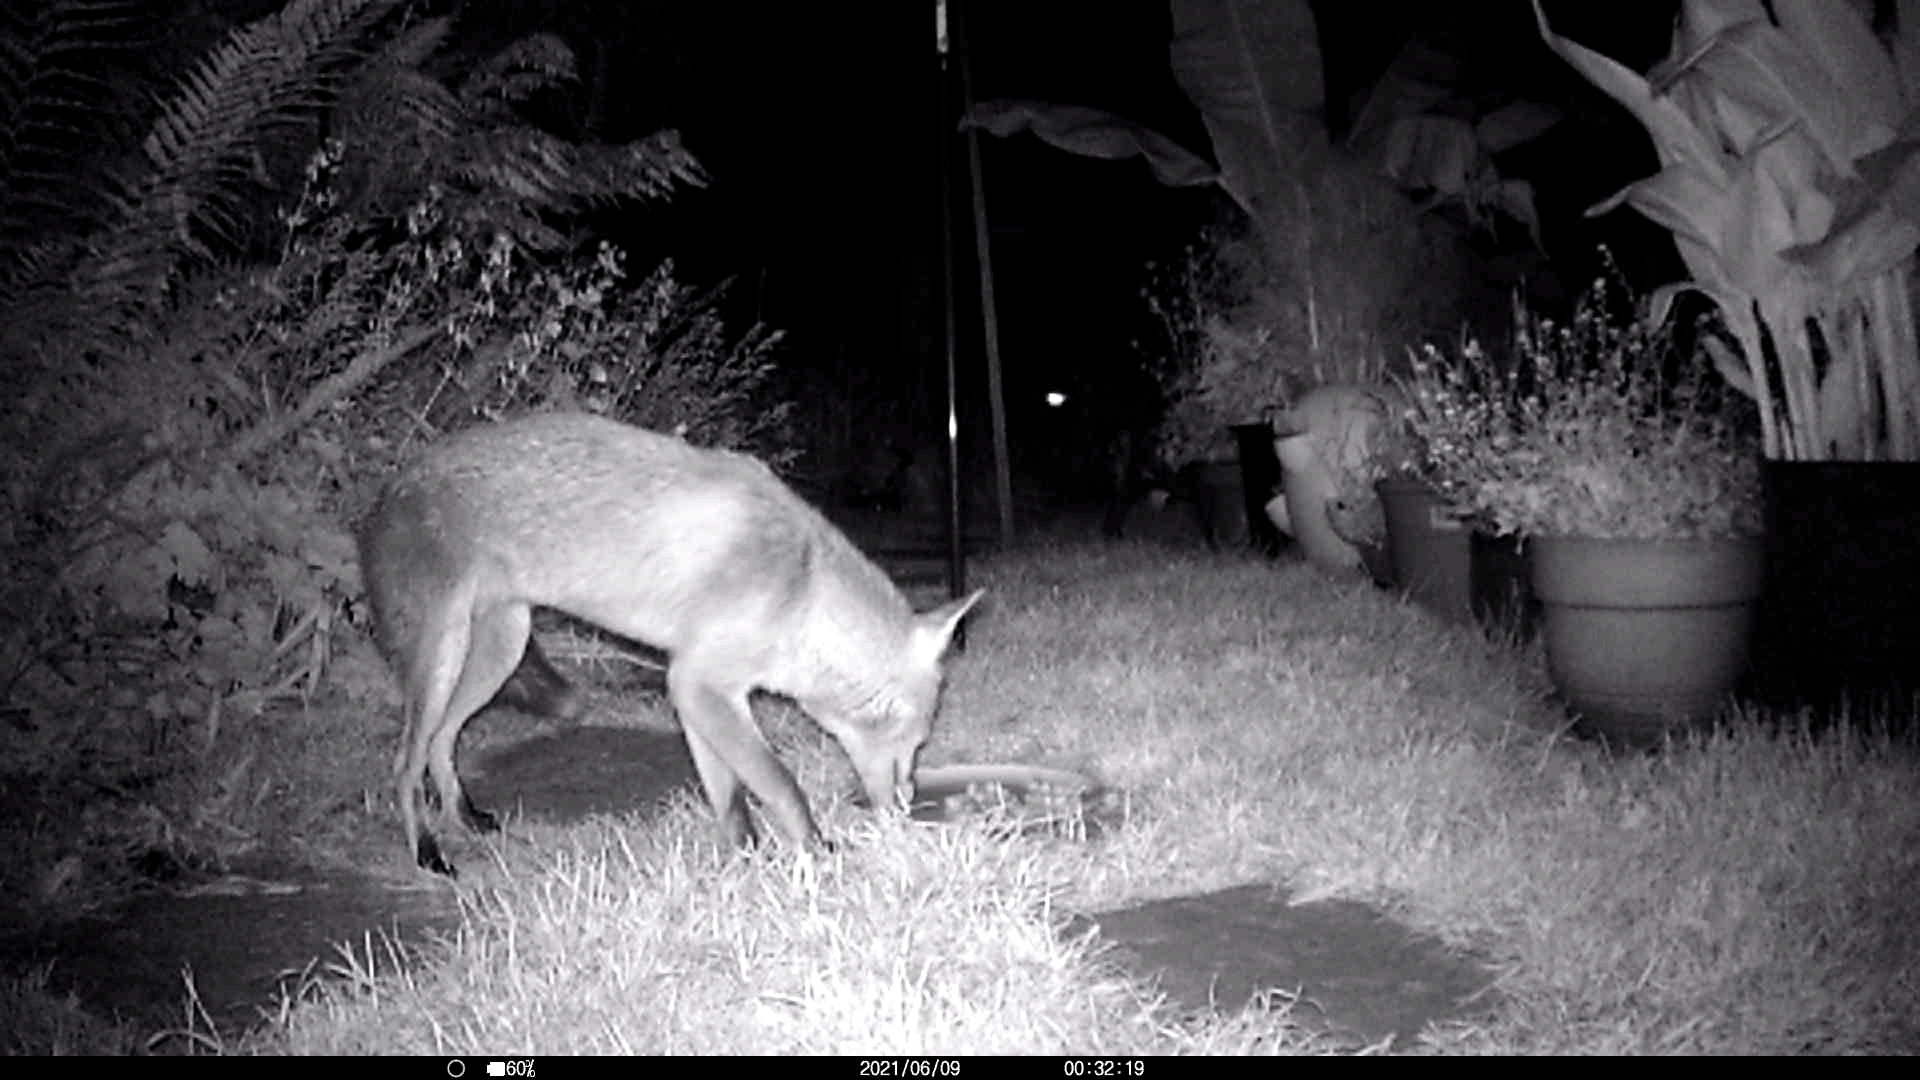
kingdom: Animalia
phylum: Chordata
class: Mammalia
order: Carnivora
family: Canidae
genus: Vulpes
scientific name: Vulpes vulpes
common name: Red fox
